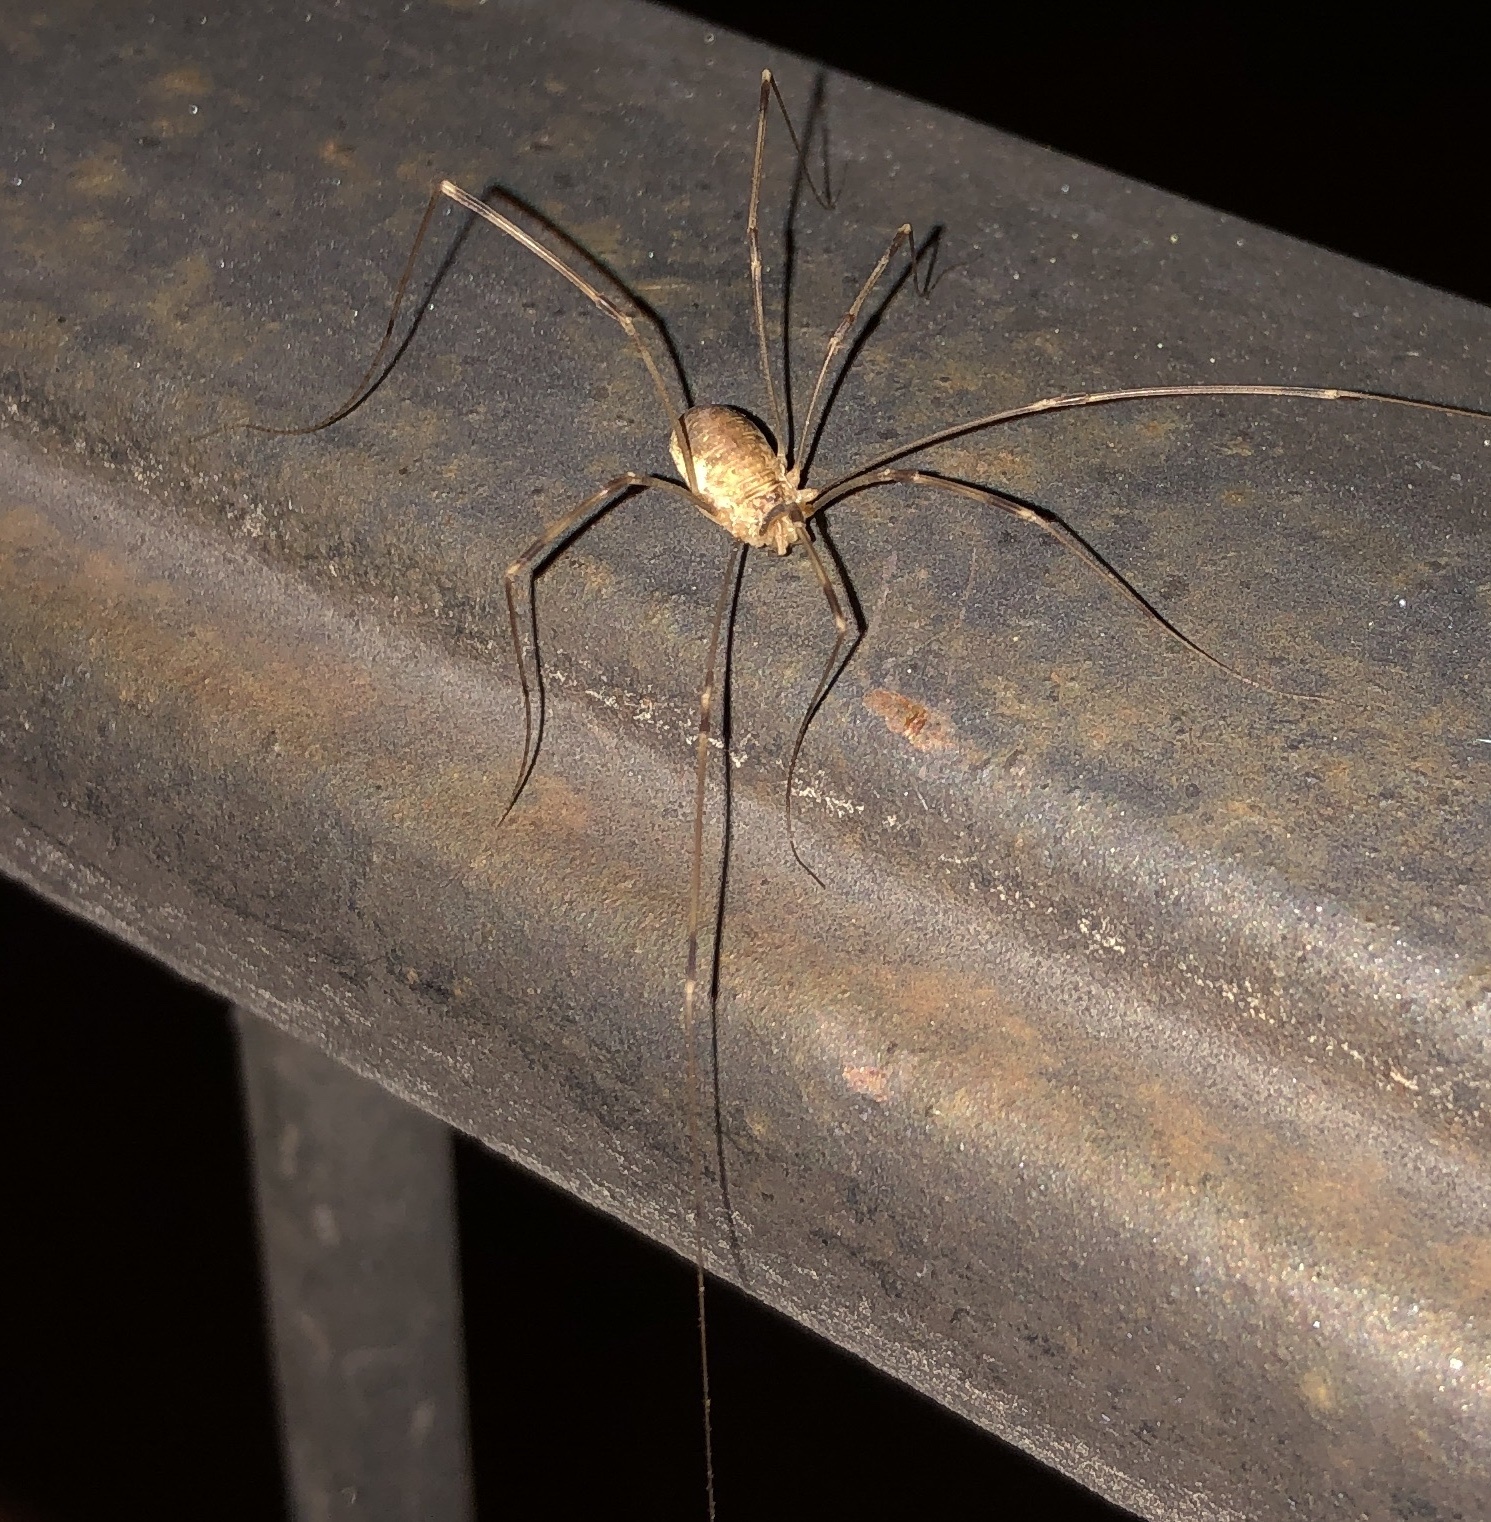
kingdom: Animalia
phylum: Arthropoda
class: Arachnida
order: Opiliones
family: Phalangiidae
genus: Opilio
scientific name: Opilio canestrinii
